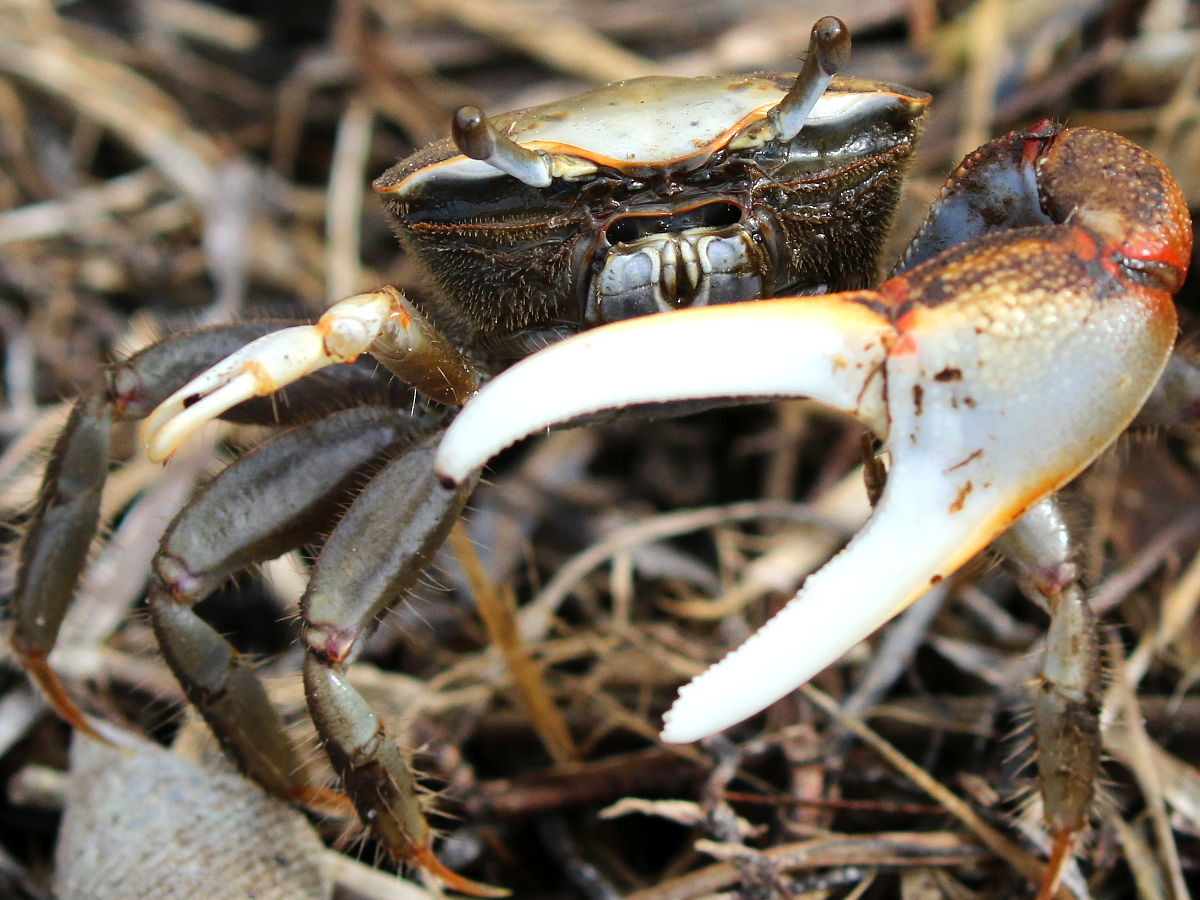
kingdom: Animalia
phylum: Arthropoda
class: Malacostraca
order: Decapoda
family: Ocypodidae
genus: Minuca
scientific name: Minuca minax
